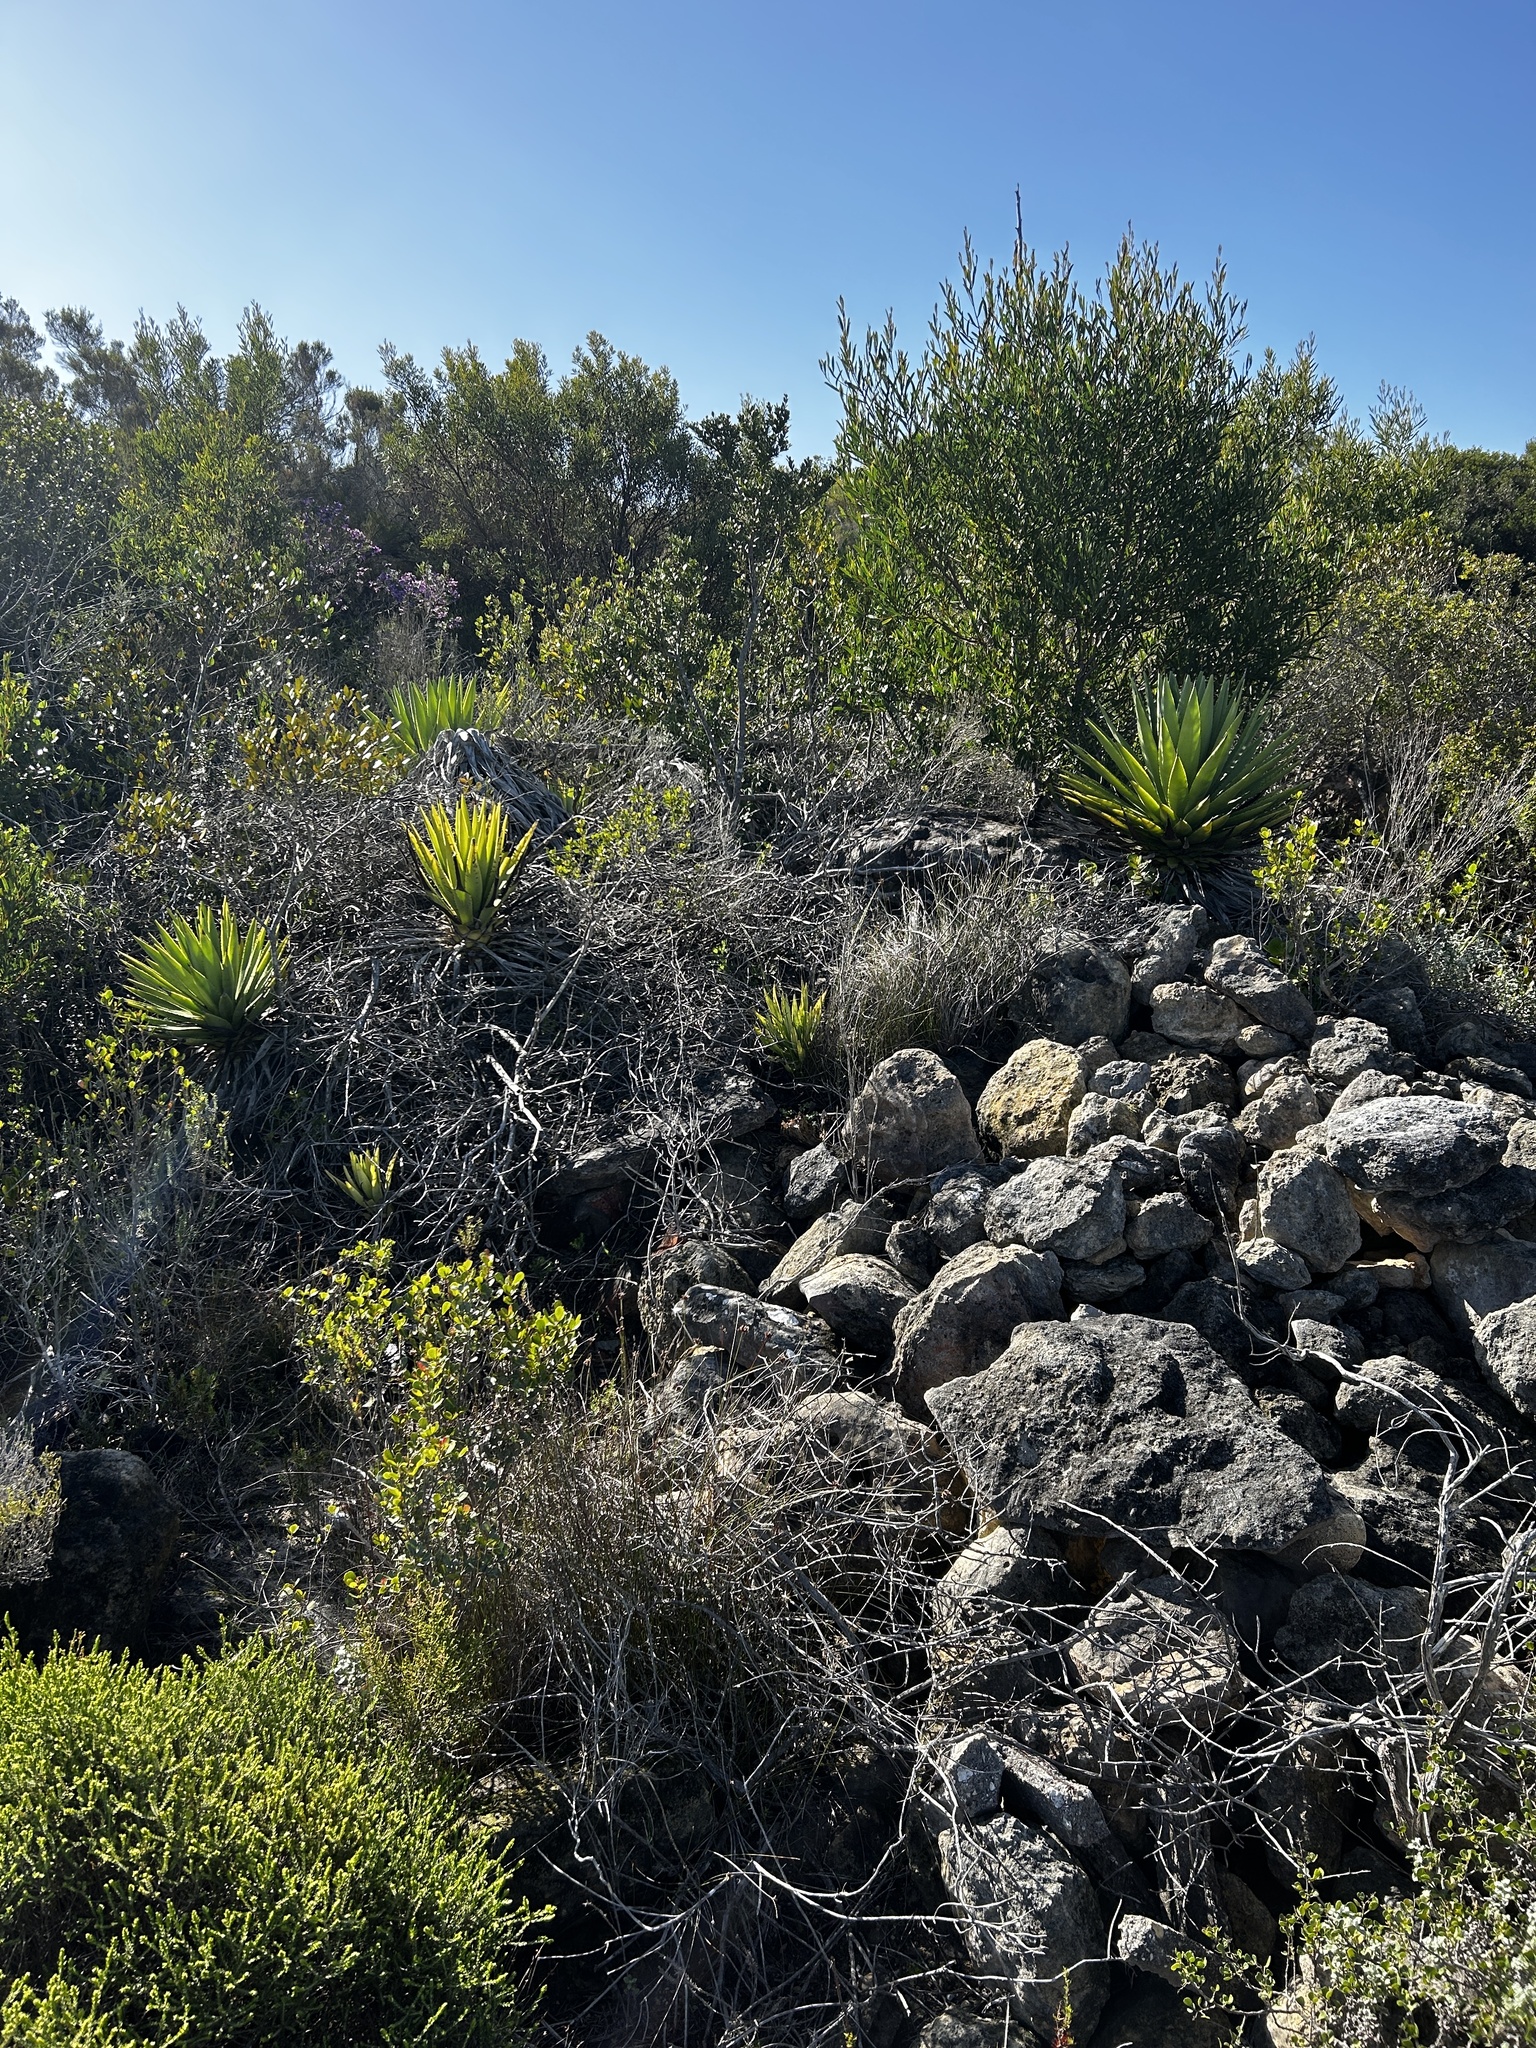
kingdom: Plantae
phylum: Tracheophyta
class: Liliopsida
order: Asparagales
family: Asparagaceae
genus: Agave
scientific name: Agave angustifolia
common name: Mescal agave
